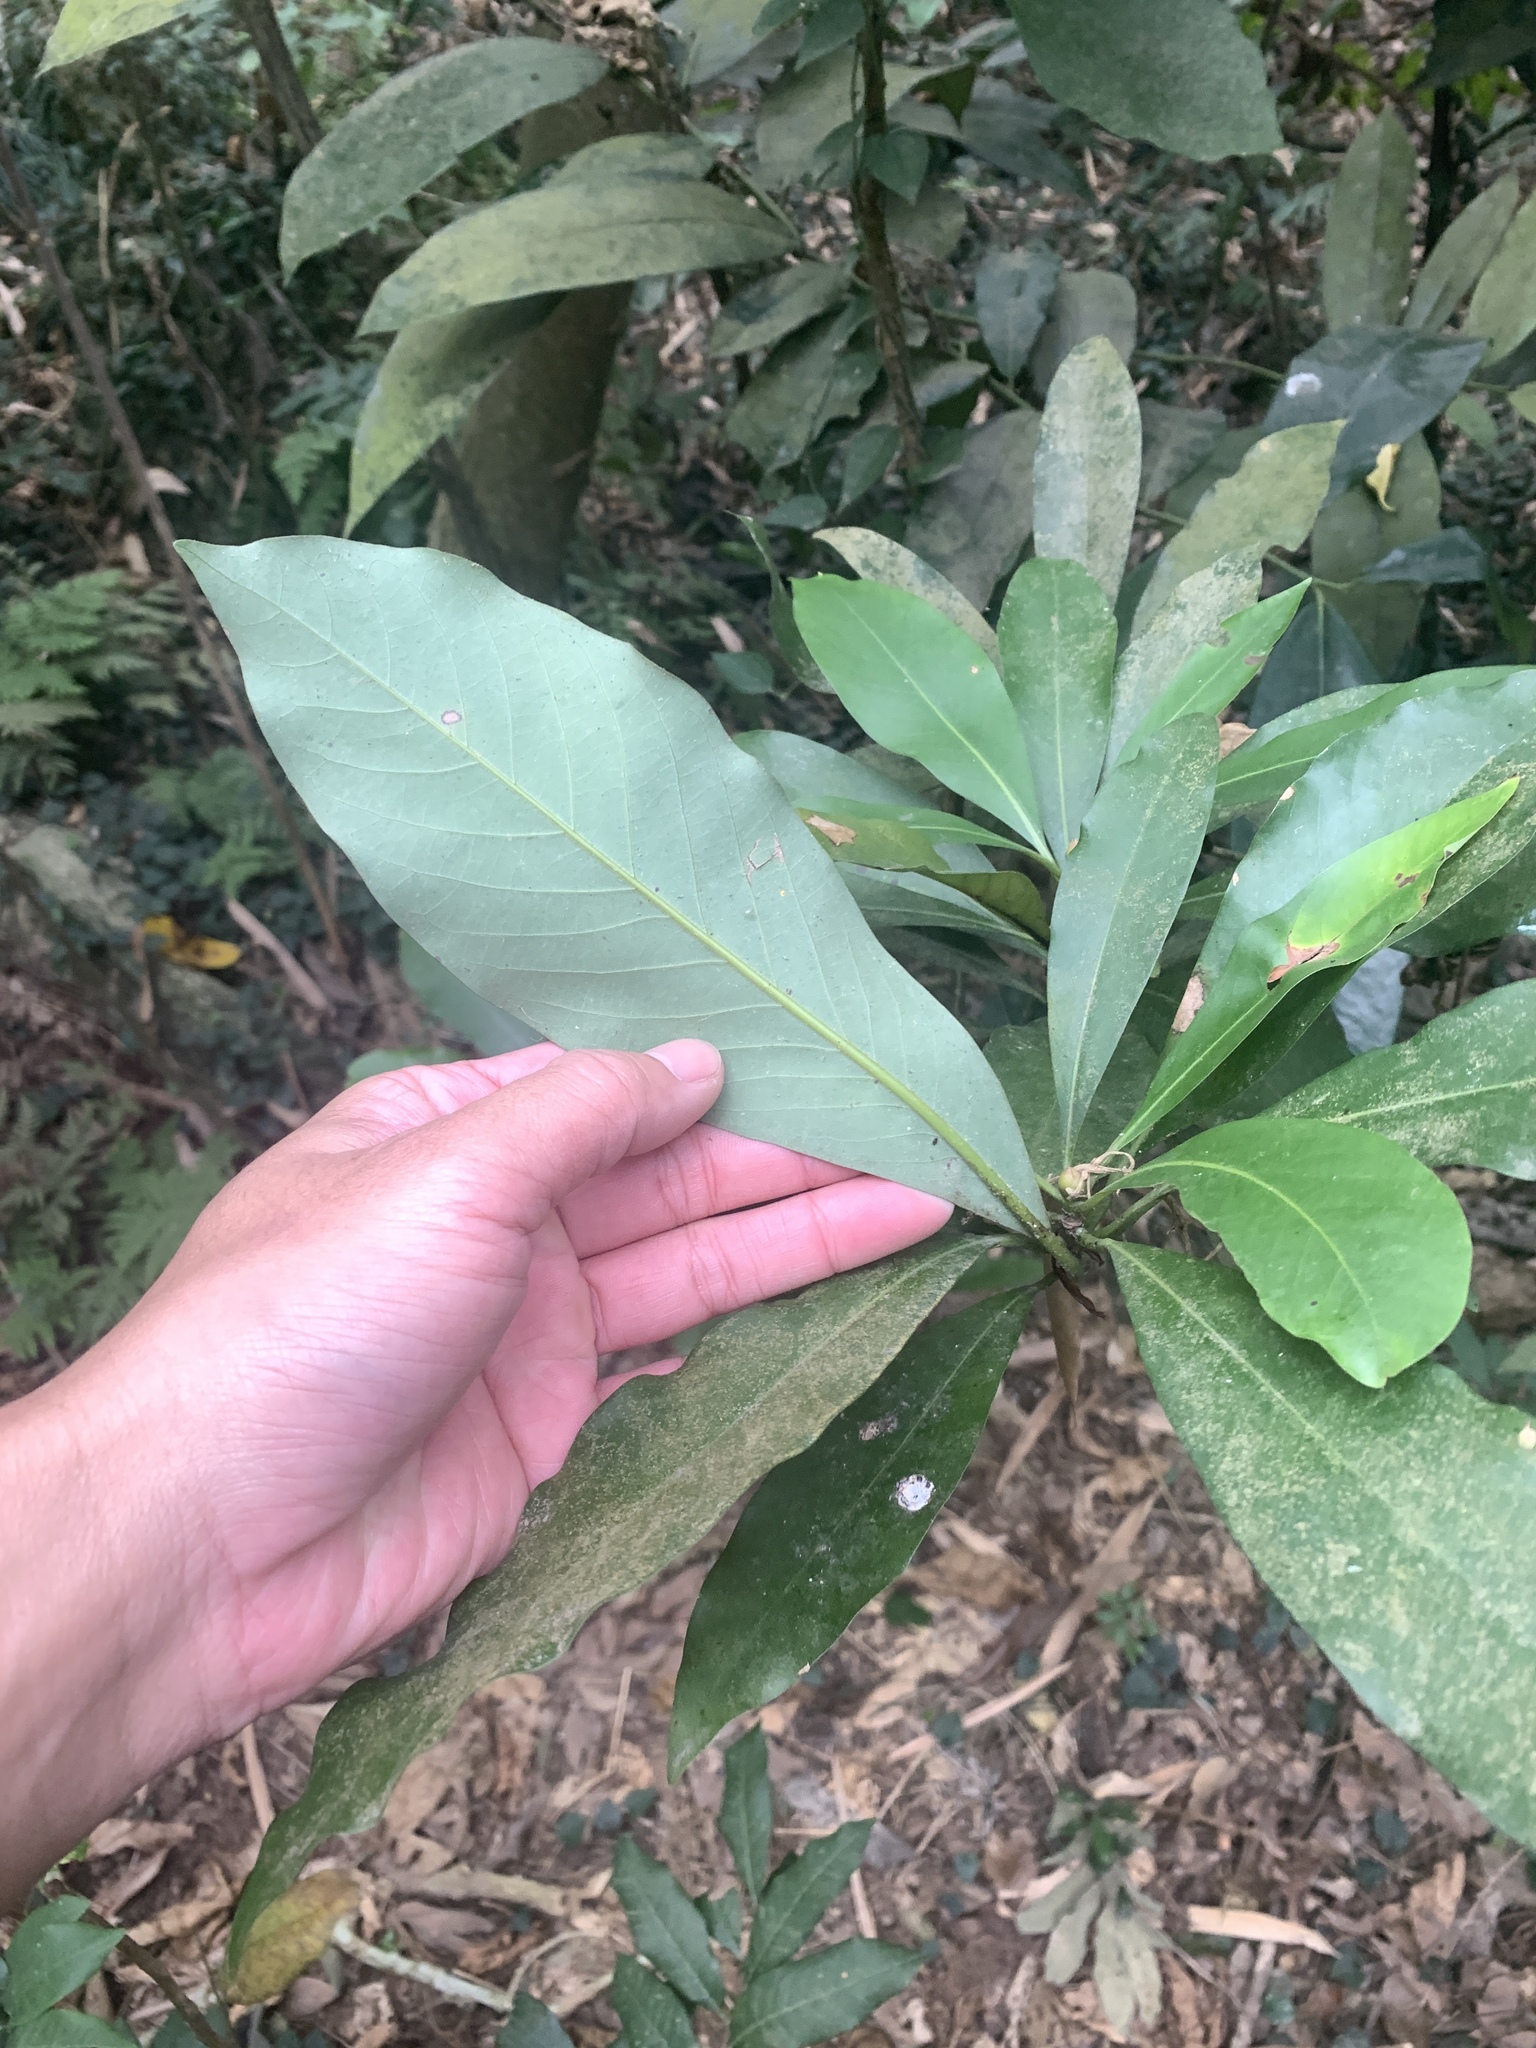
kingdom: Plantae
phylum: Tracheophyta
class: Magnoliopsida
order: Laurales
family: Lauraceae
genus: Machilus
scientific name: Machilus japonica
